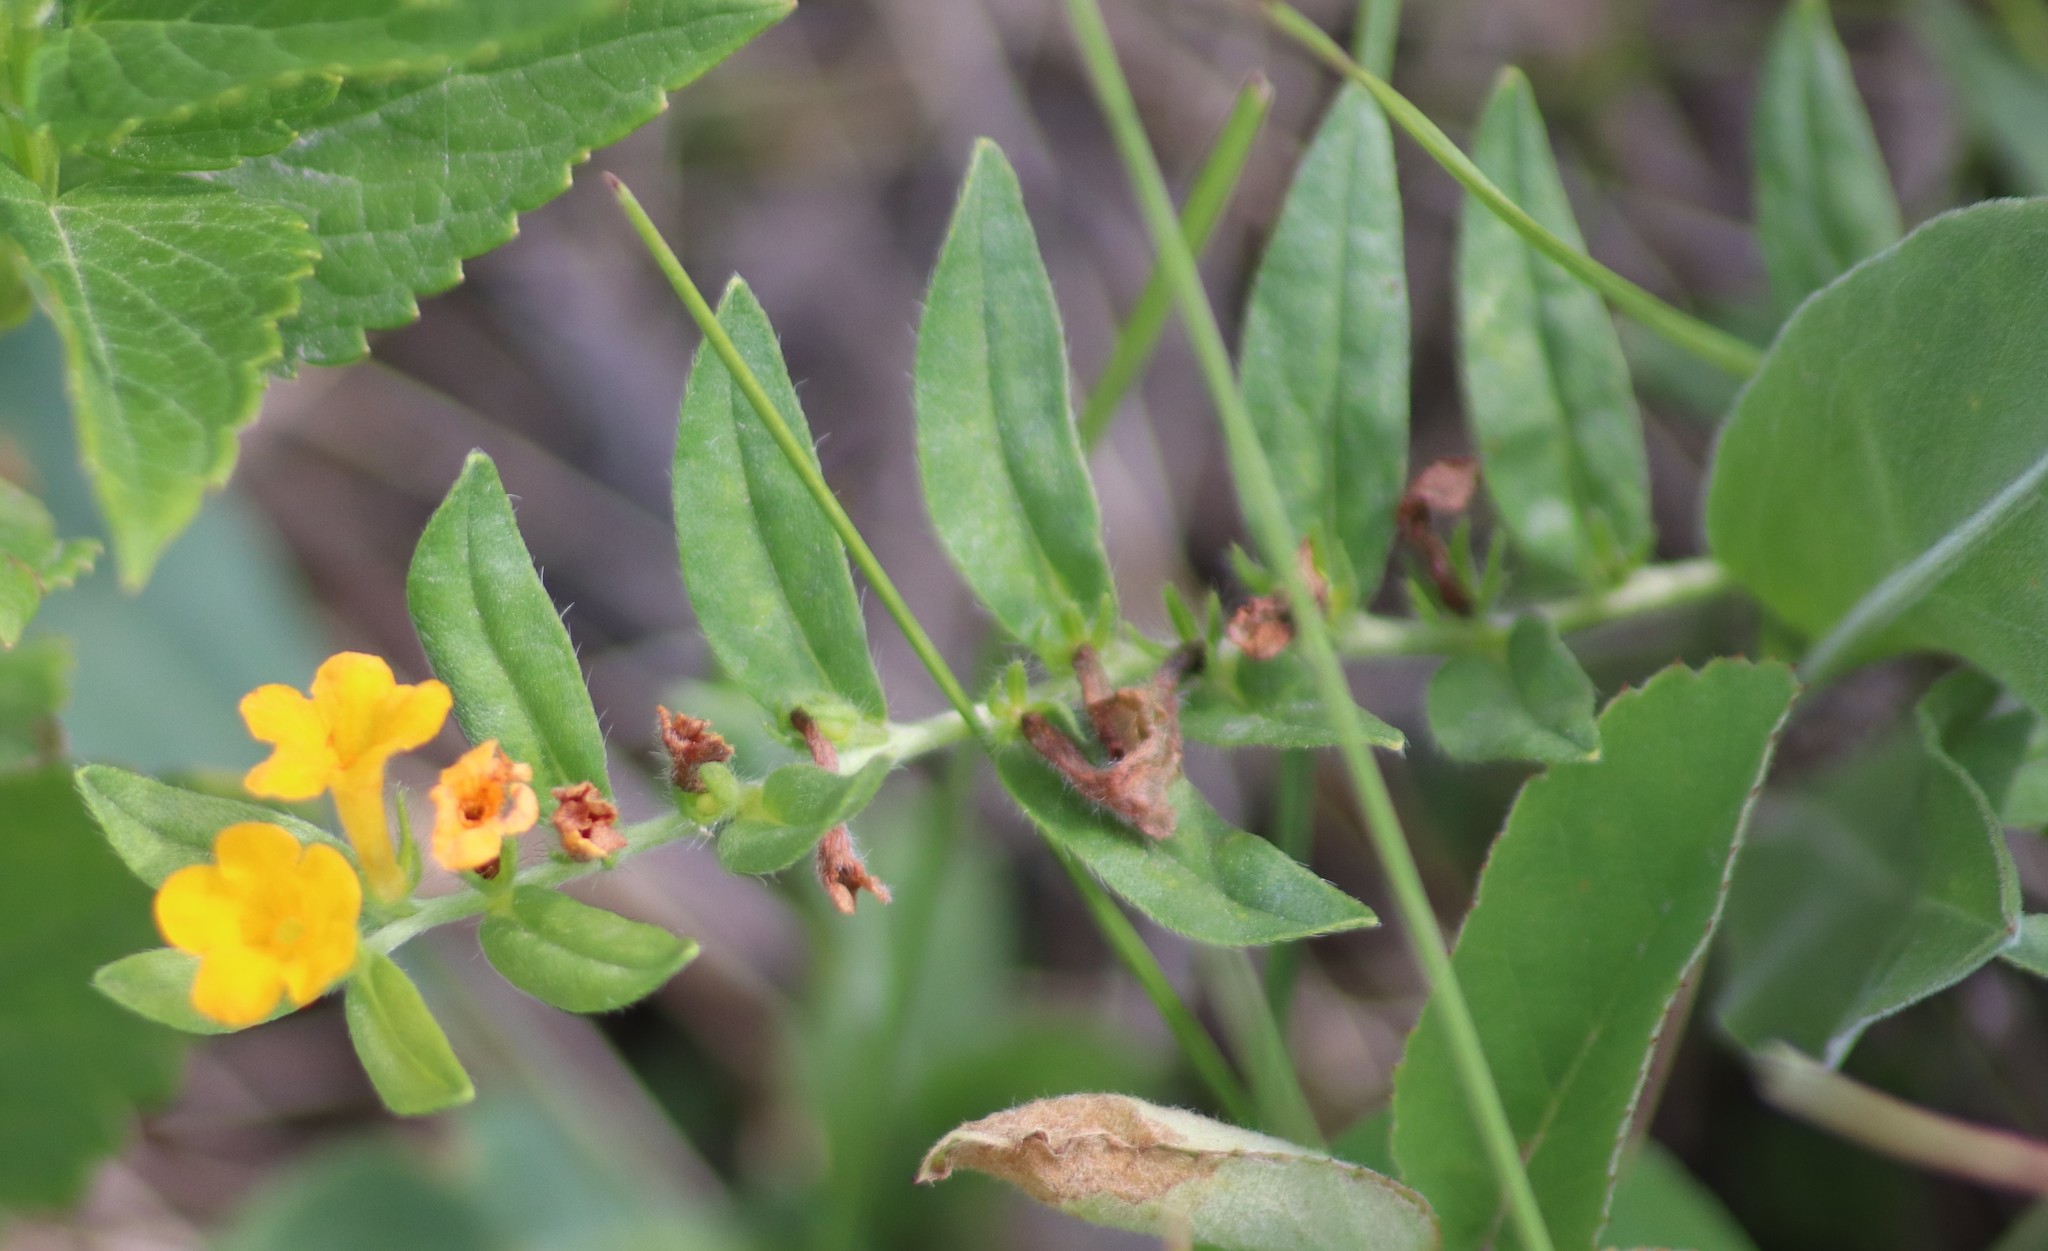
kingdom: Plantae
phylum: Tracheophyta
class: Magnoliopsida
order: Boraginales
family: Boraginaceae
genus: Lithospermum
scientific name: Lithospermum canescens
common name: Hoary puccoon
